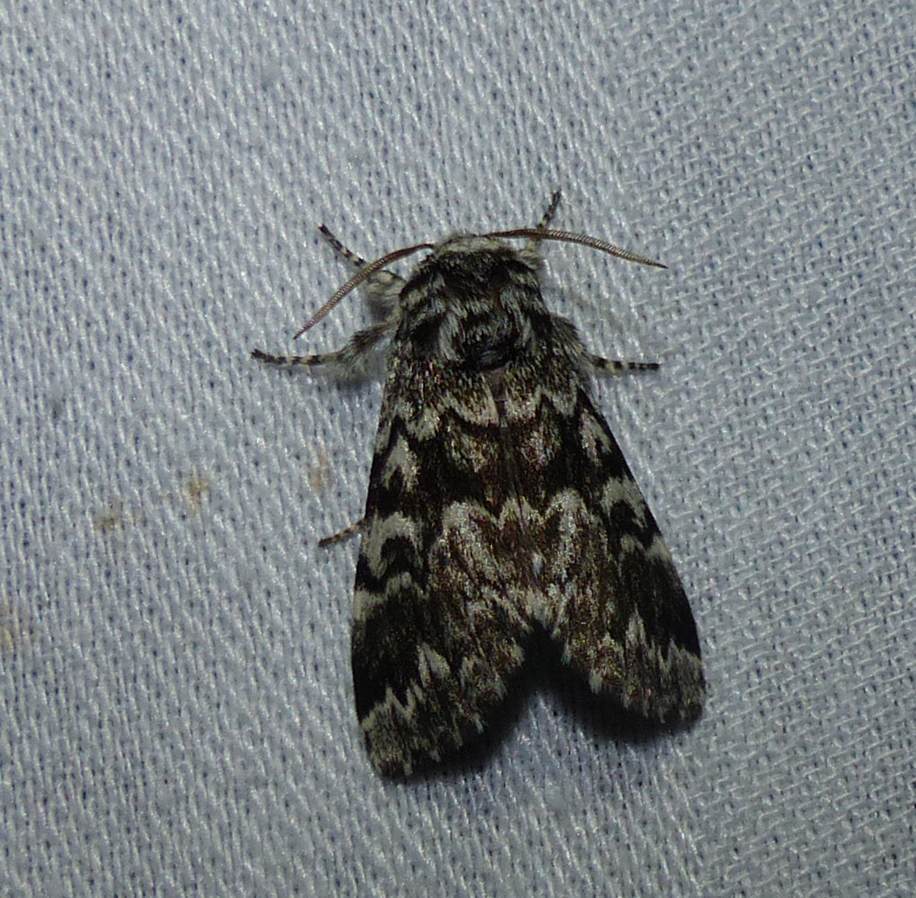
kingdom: Animalia
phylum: Arthropoda
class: Insecta
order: Lepidoptera
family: Noctuidae
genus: Panthea
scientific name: Panthea acronyctoides
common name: Black zigzag moth
